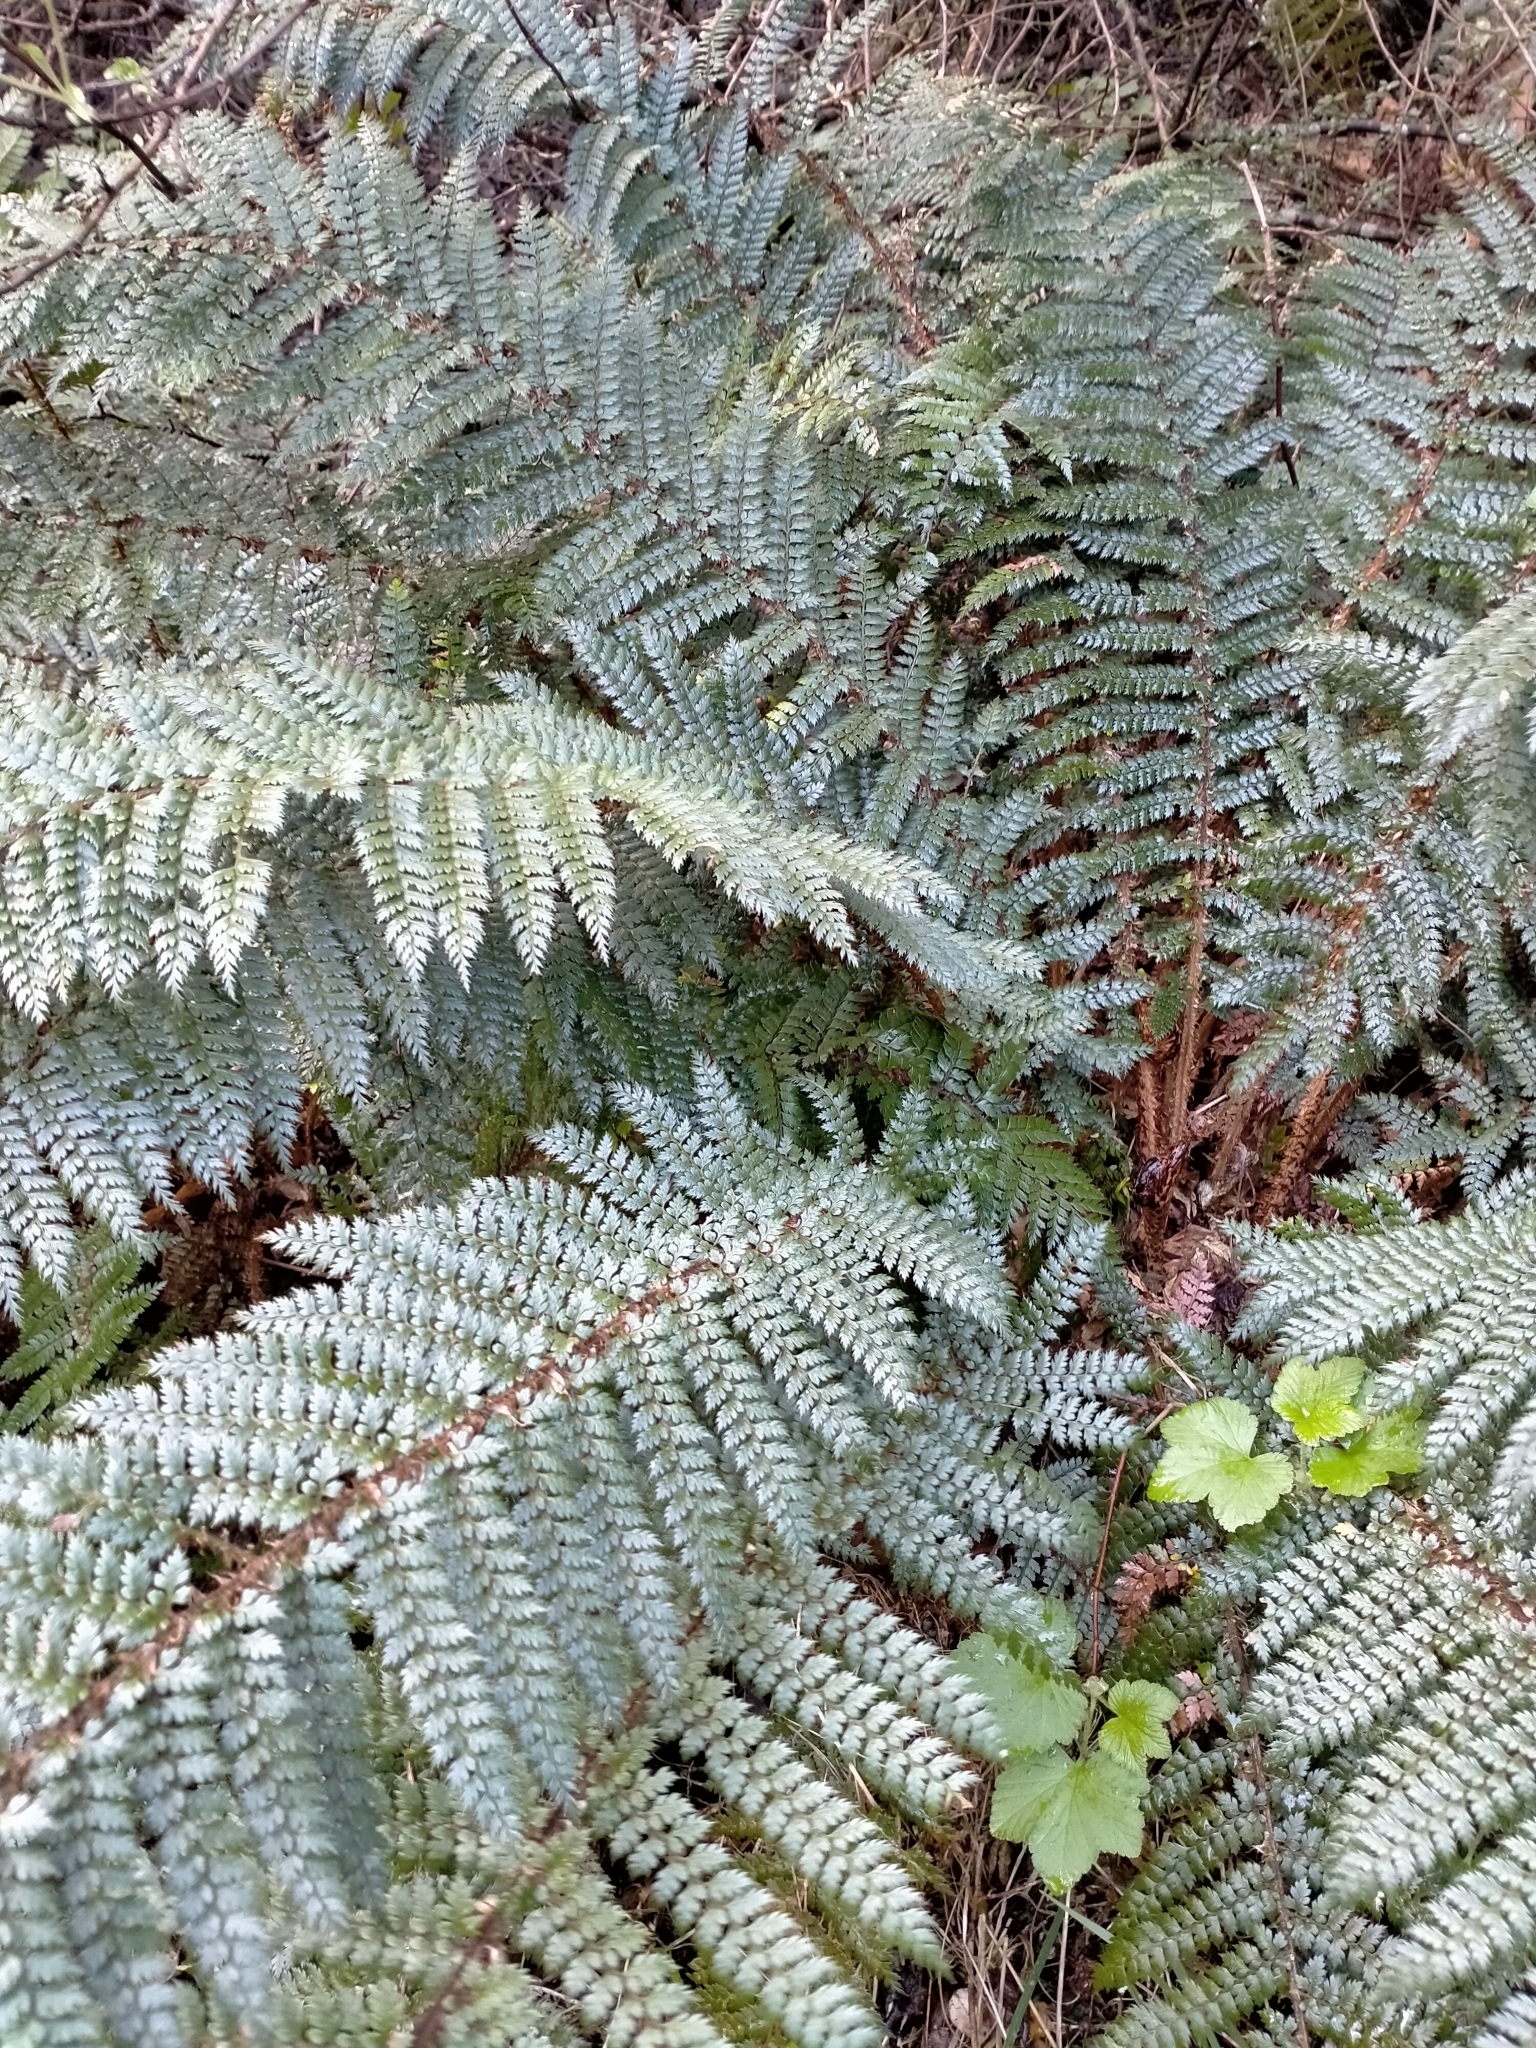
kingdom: Plantae
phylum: Tracheophyta
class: Polypodiopsida
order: Polypodiales
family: Dryopteridaceae
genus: Polystichum
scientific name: Polystichum vestitum
